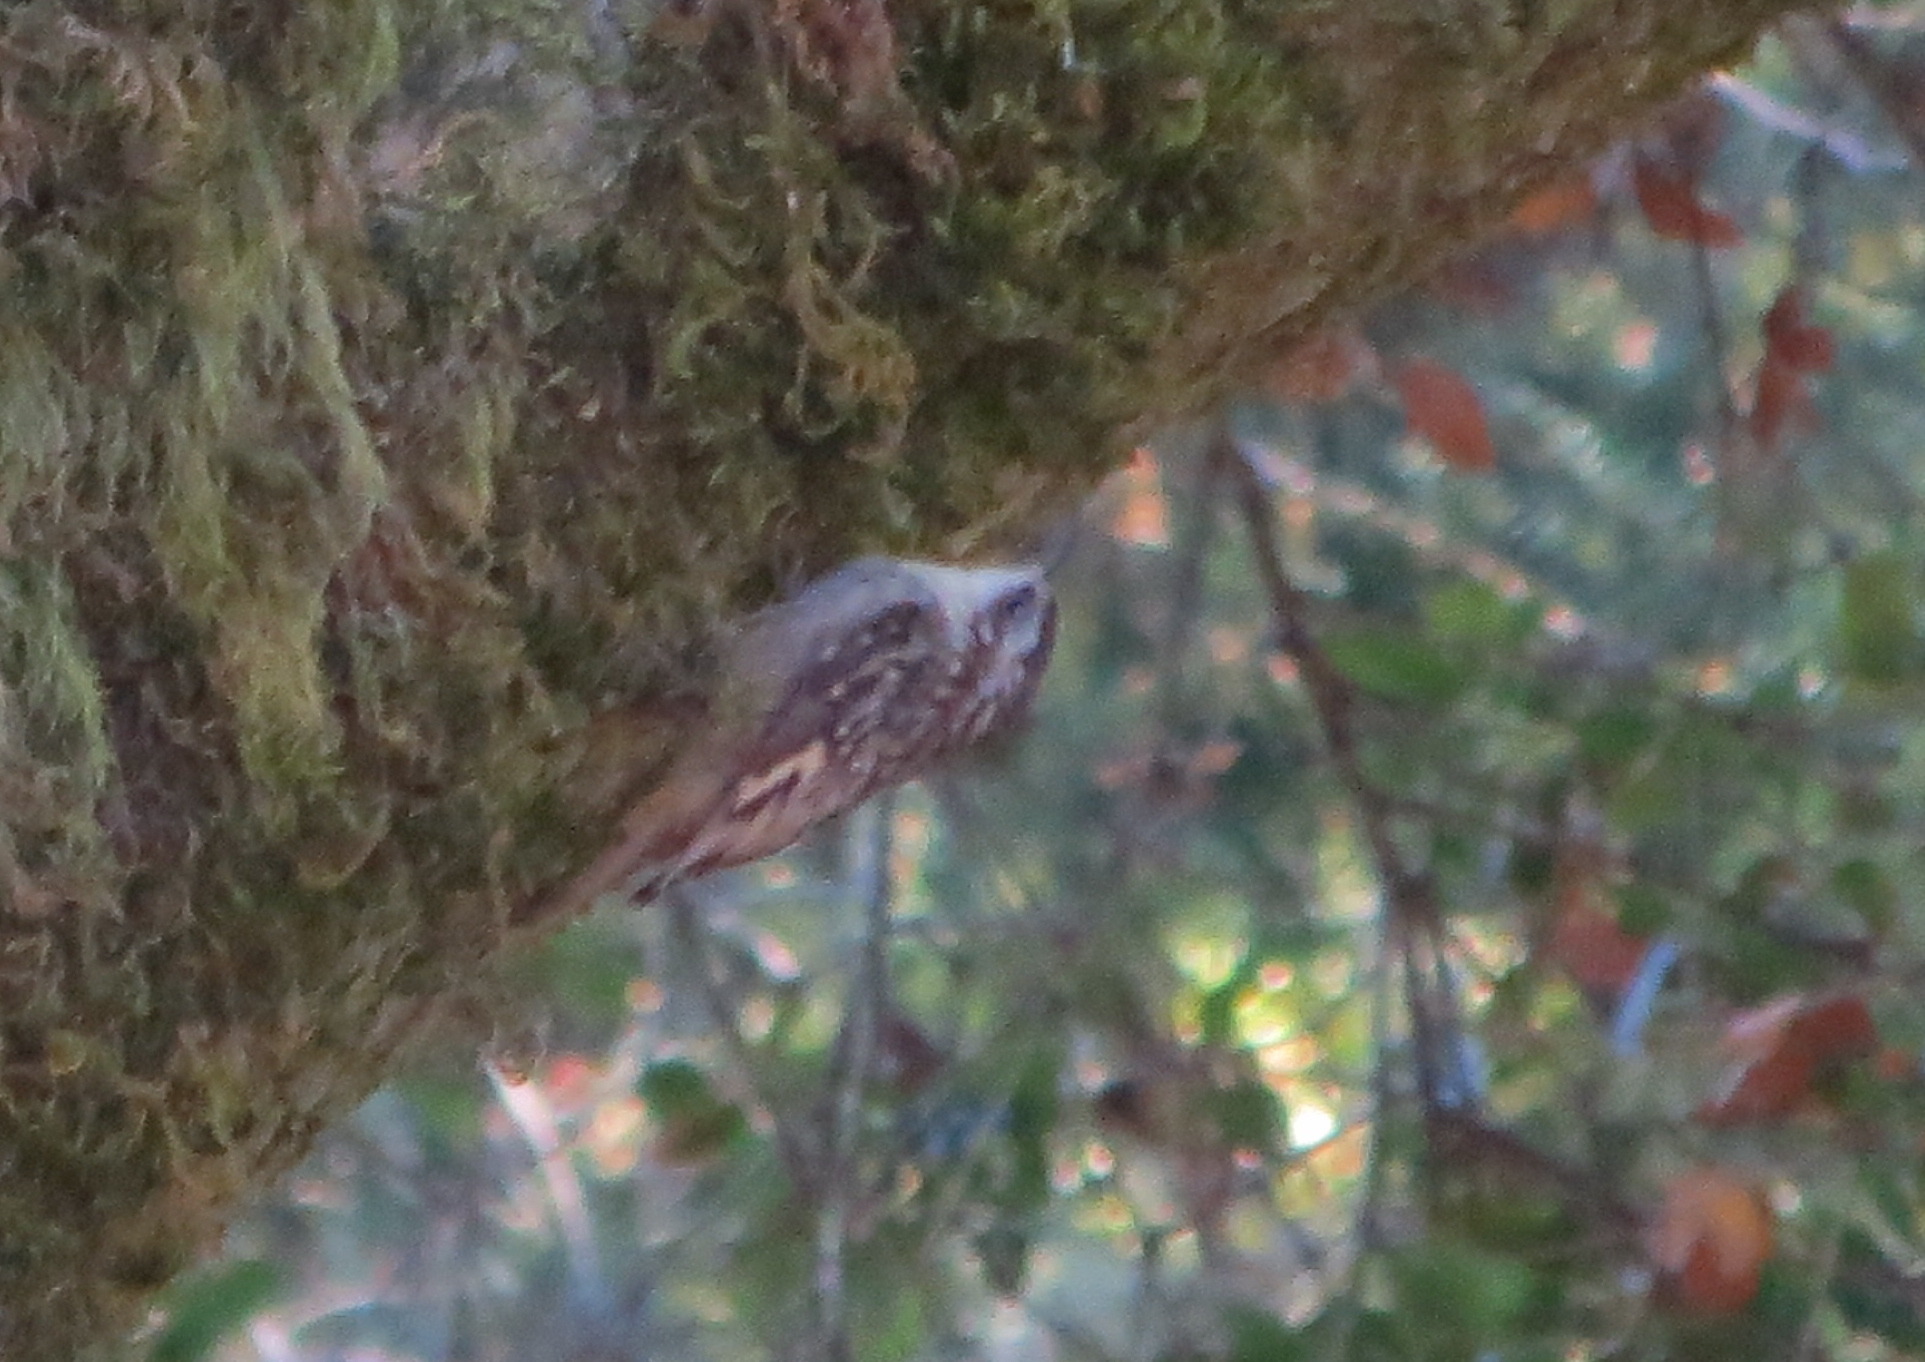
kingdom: Animalia
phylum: Chordata
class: Aves
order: Passeriformes
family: Certhiidae
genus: Certhia
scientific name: Certhia americana
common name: Brown creeper
